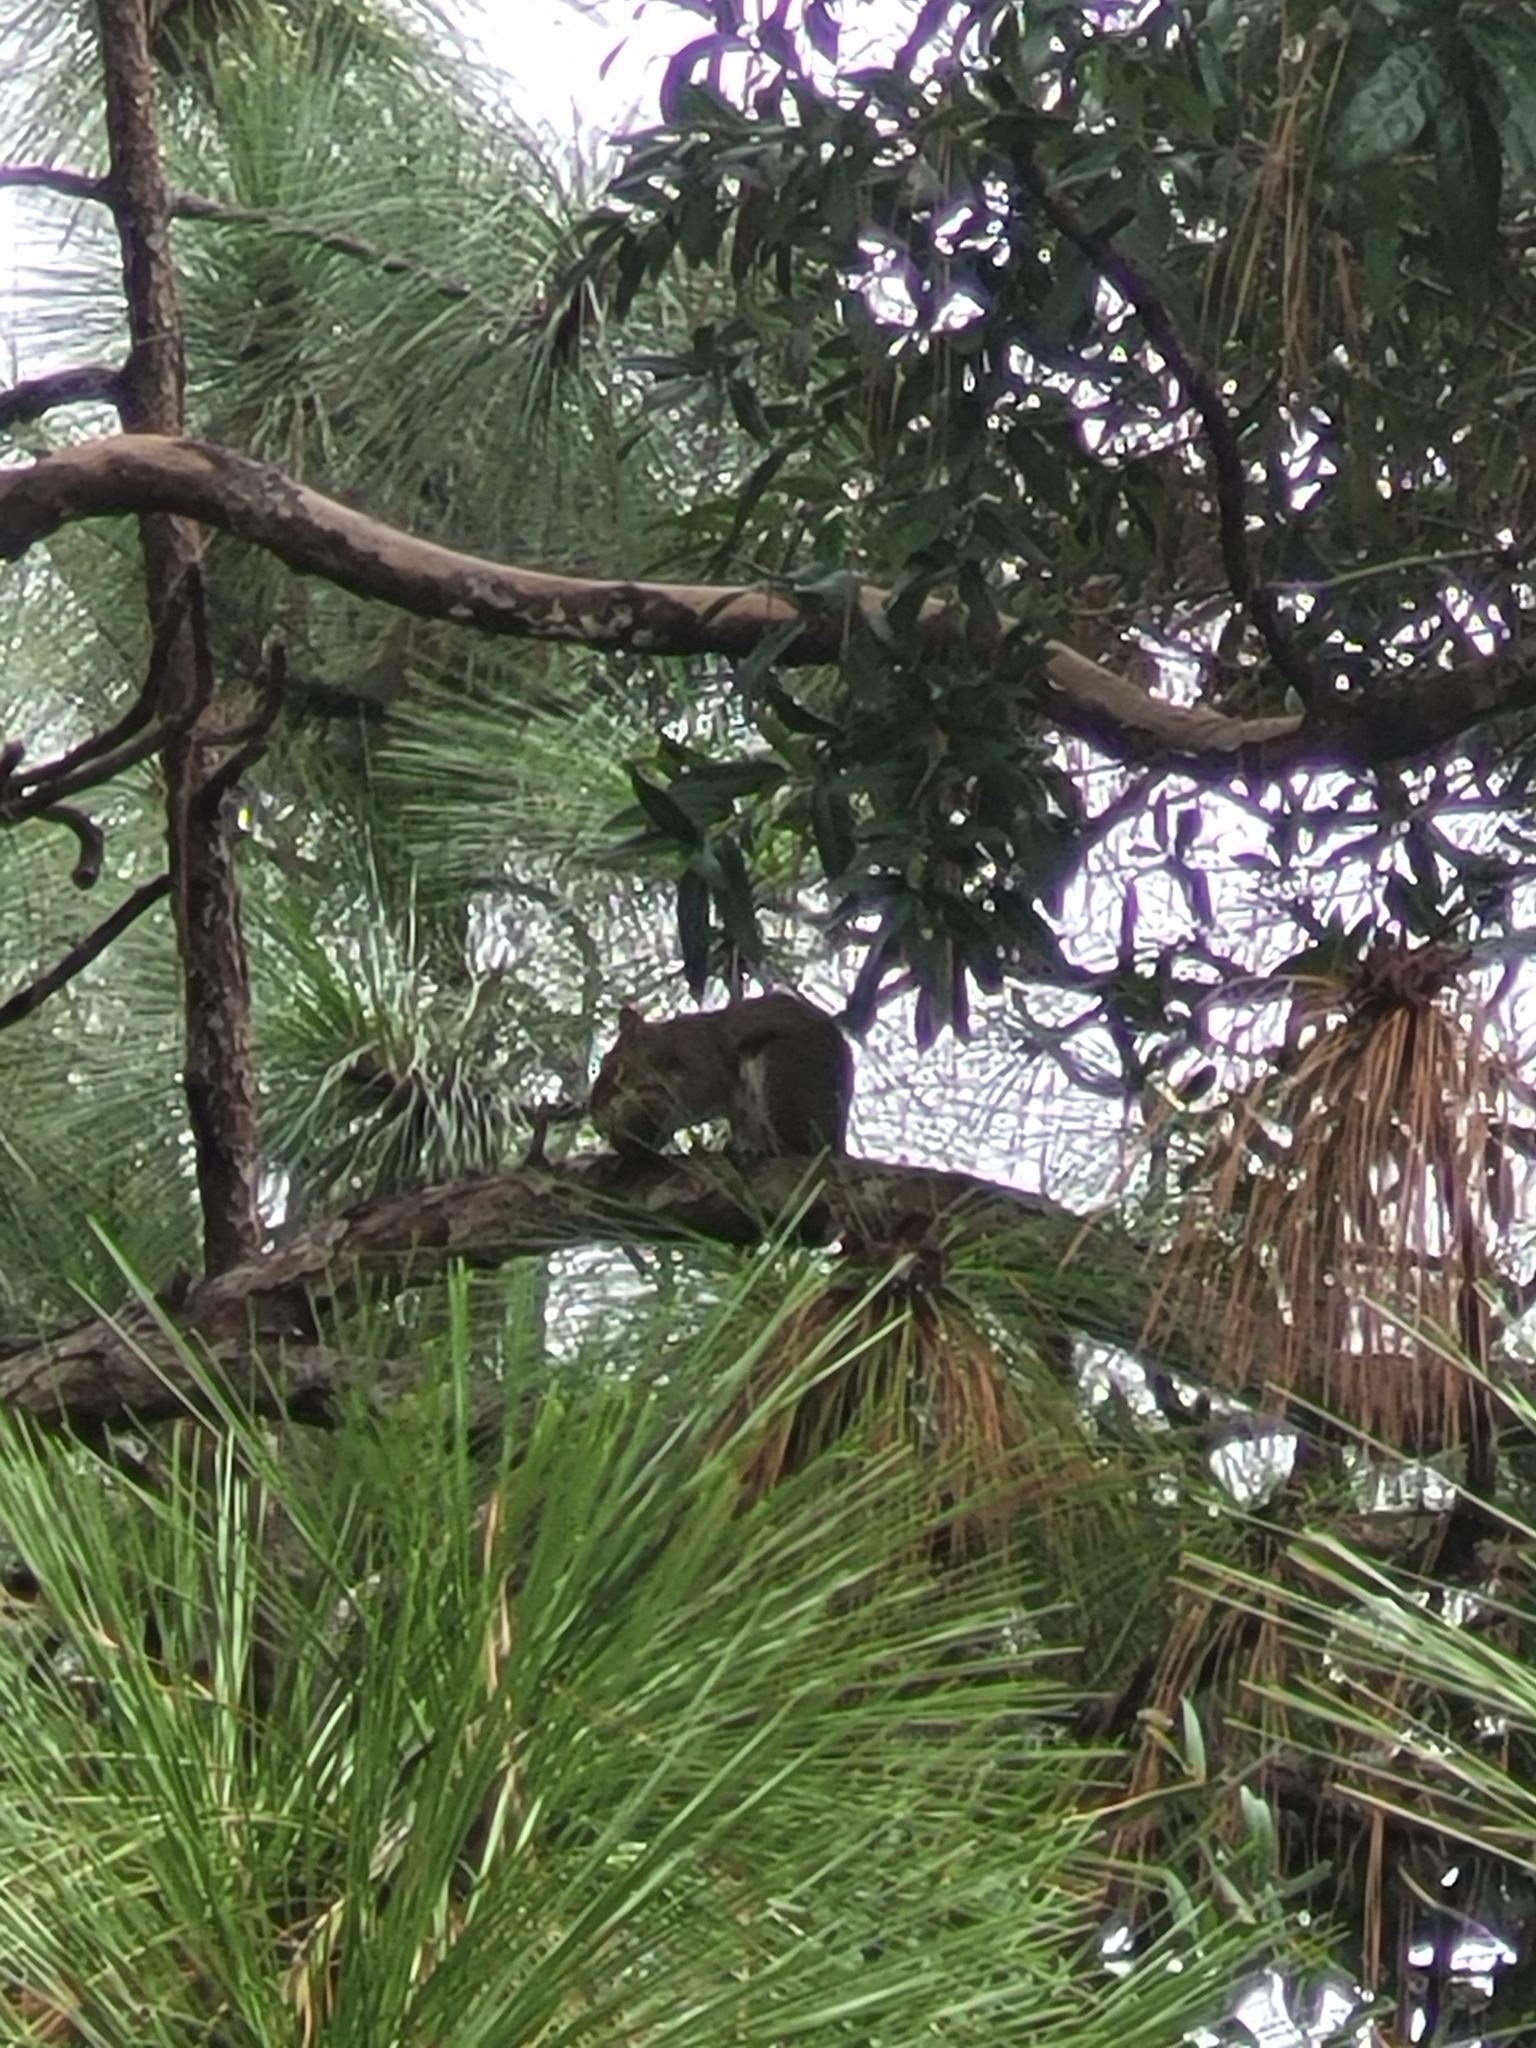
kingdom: Animalia
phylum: Chordata
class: Mammalia
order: Rodentia
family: Sciuridae
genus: Sciurus
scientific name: Sciurus carolinensis
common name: Eastern gray squirrel
